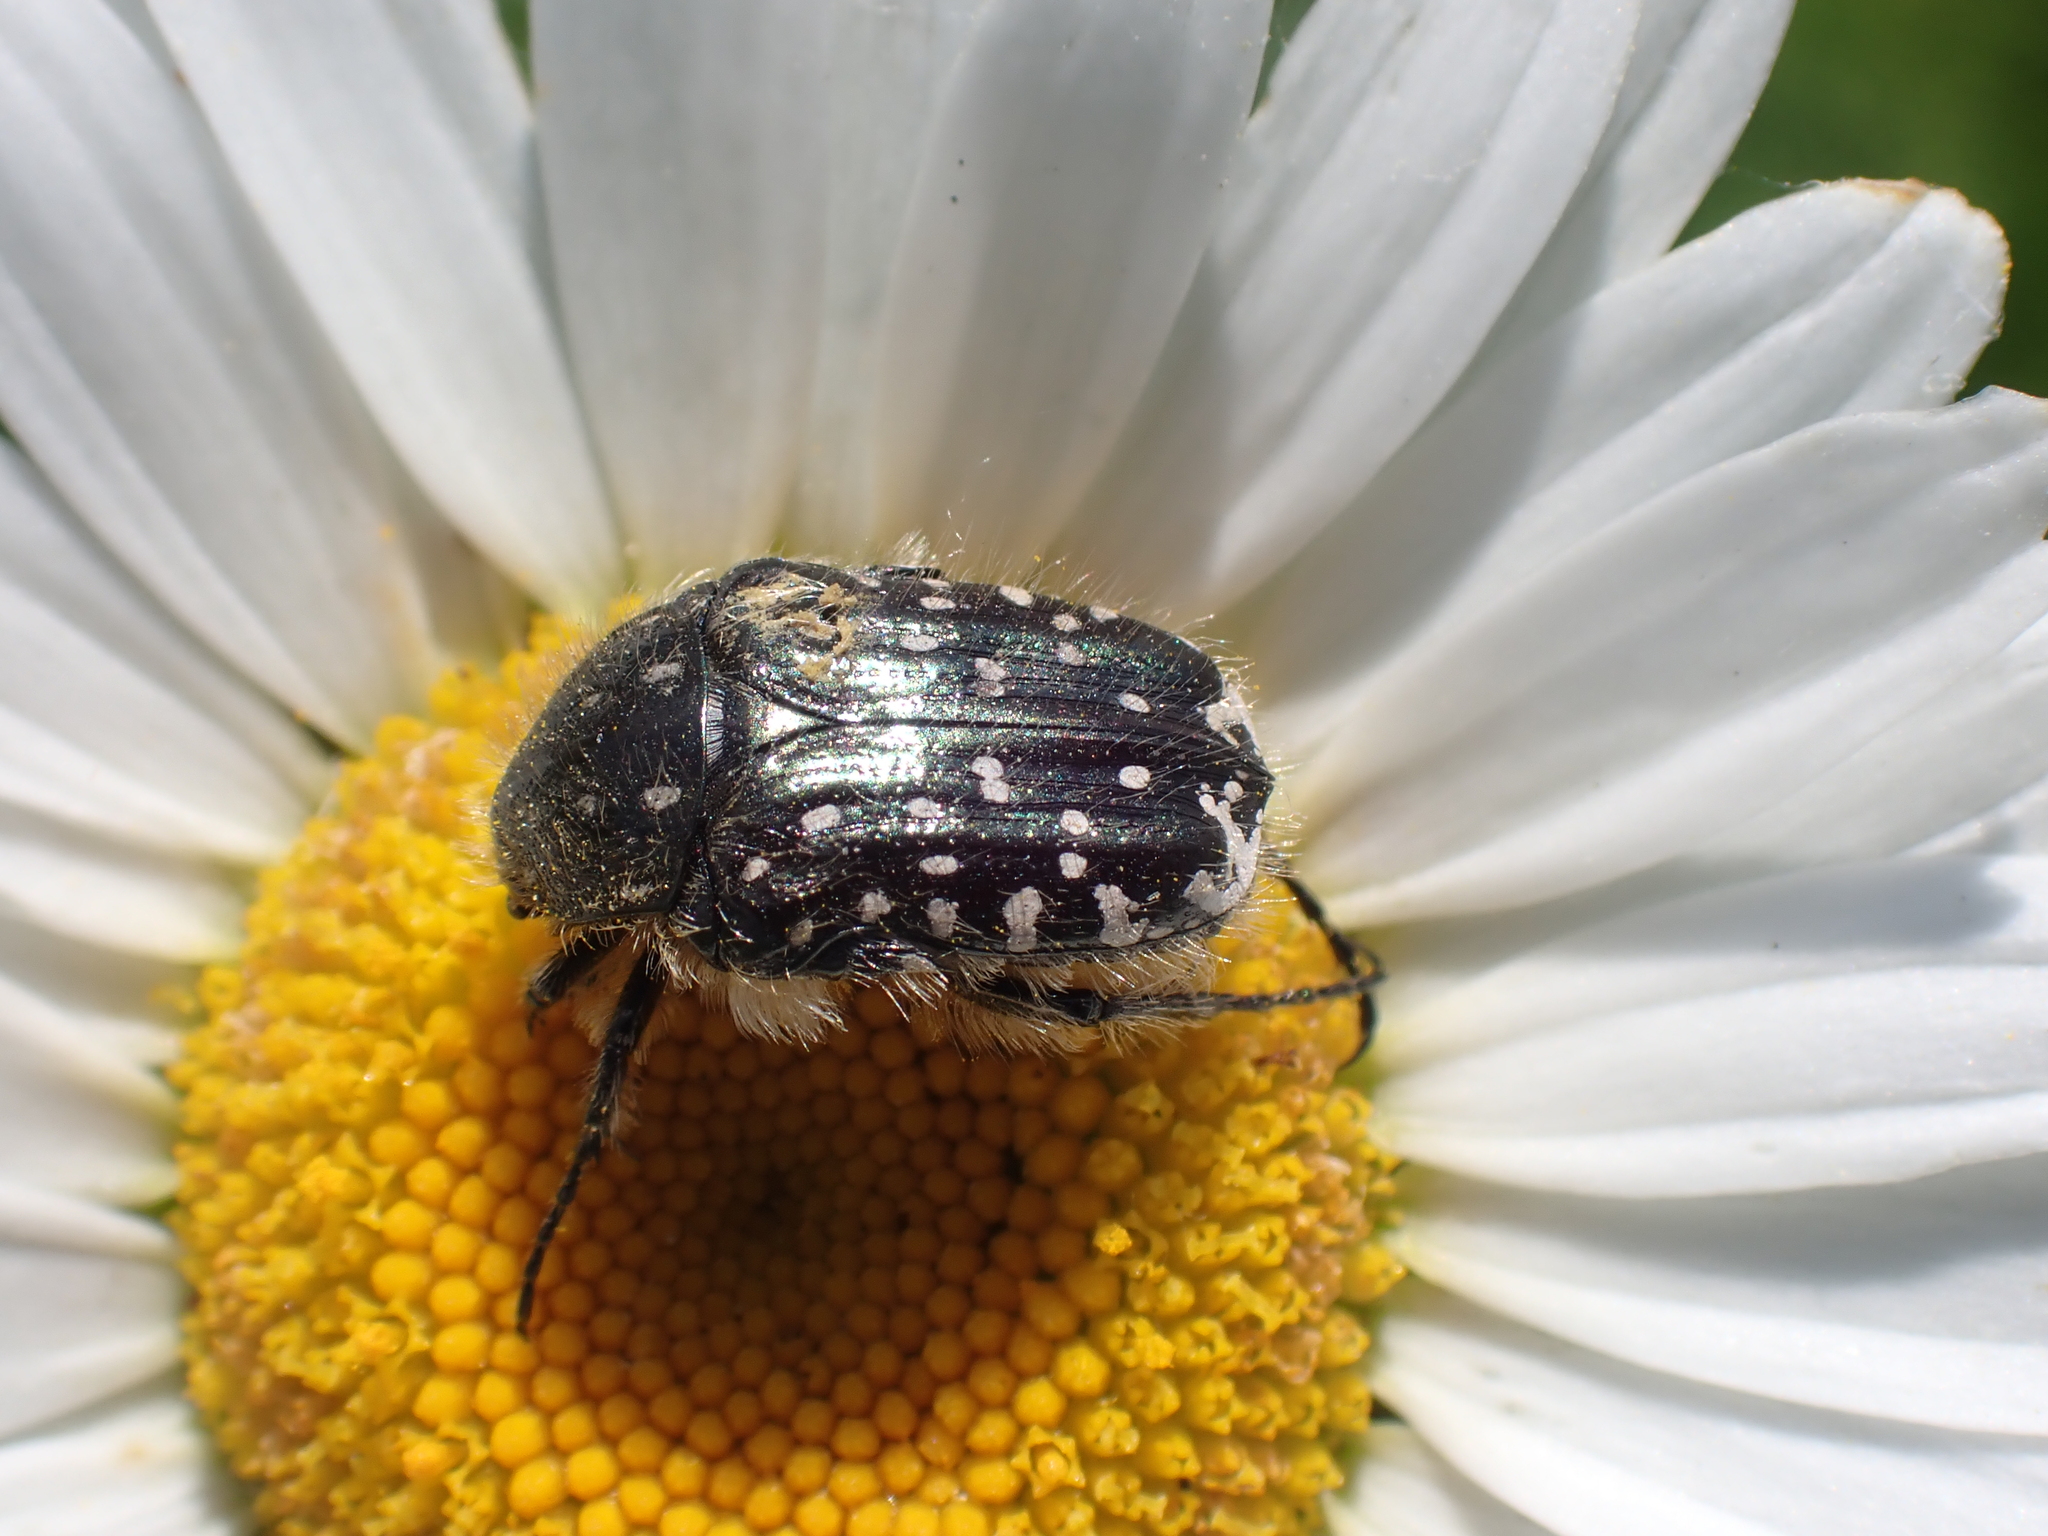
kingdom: Animalia
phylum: Arthropoda
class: Insecta
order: Coleoptera
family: Scarabaeidae
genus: Oxythyrea
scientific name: Oxythyrea funesta
